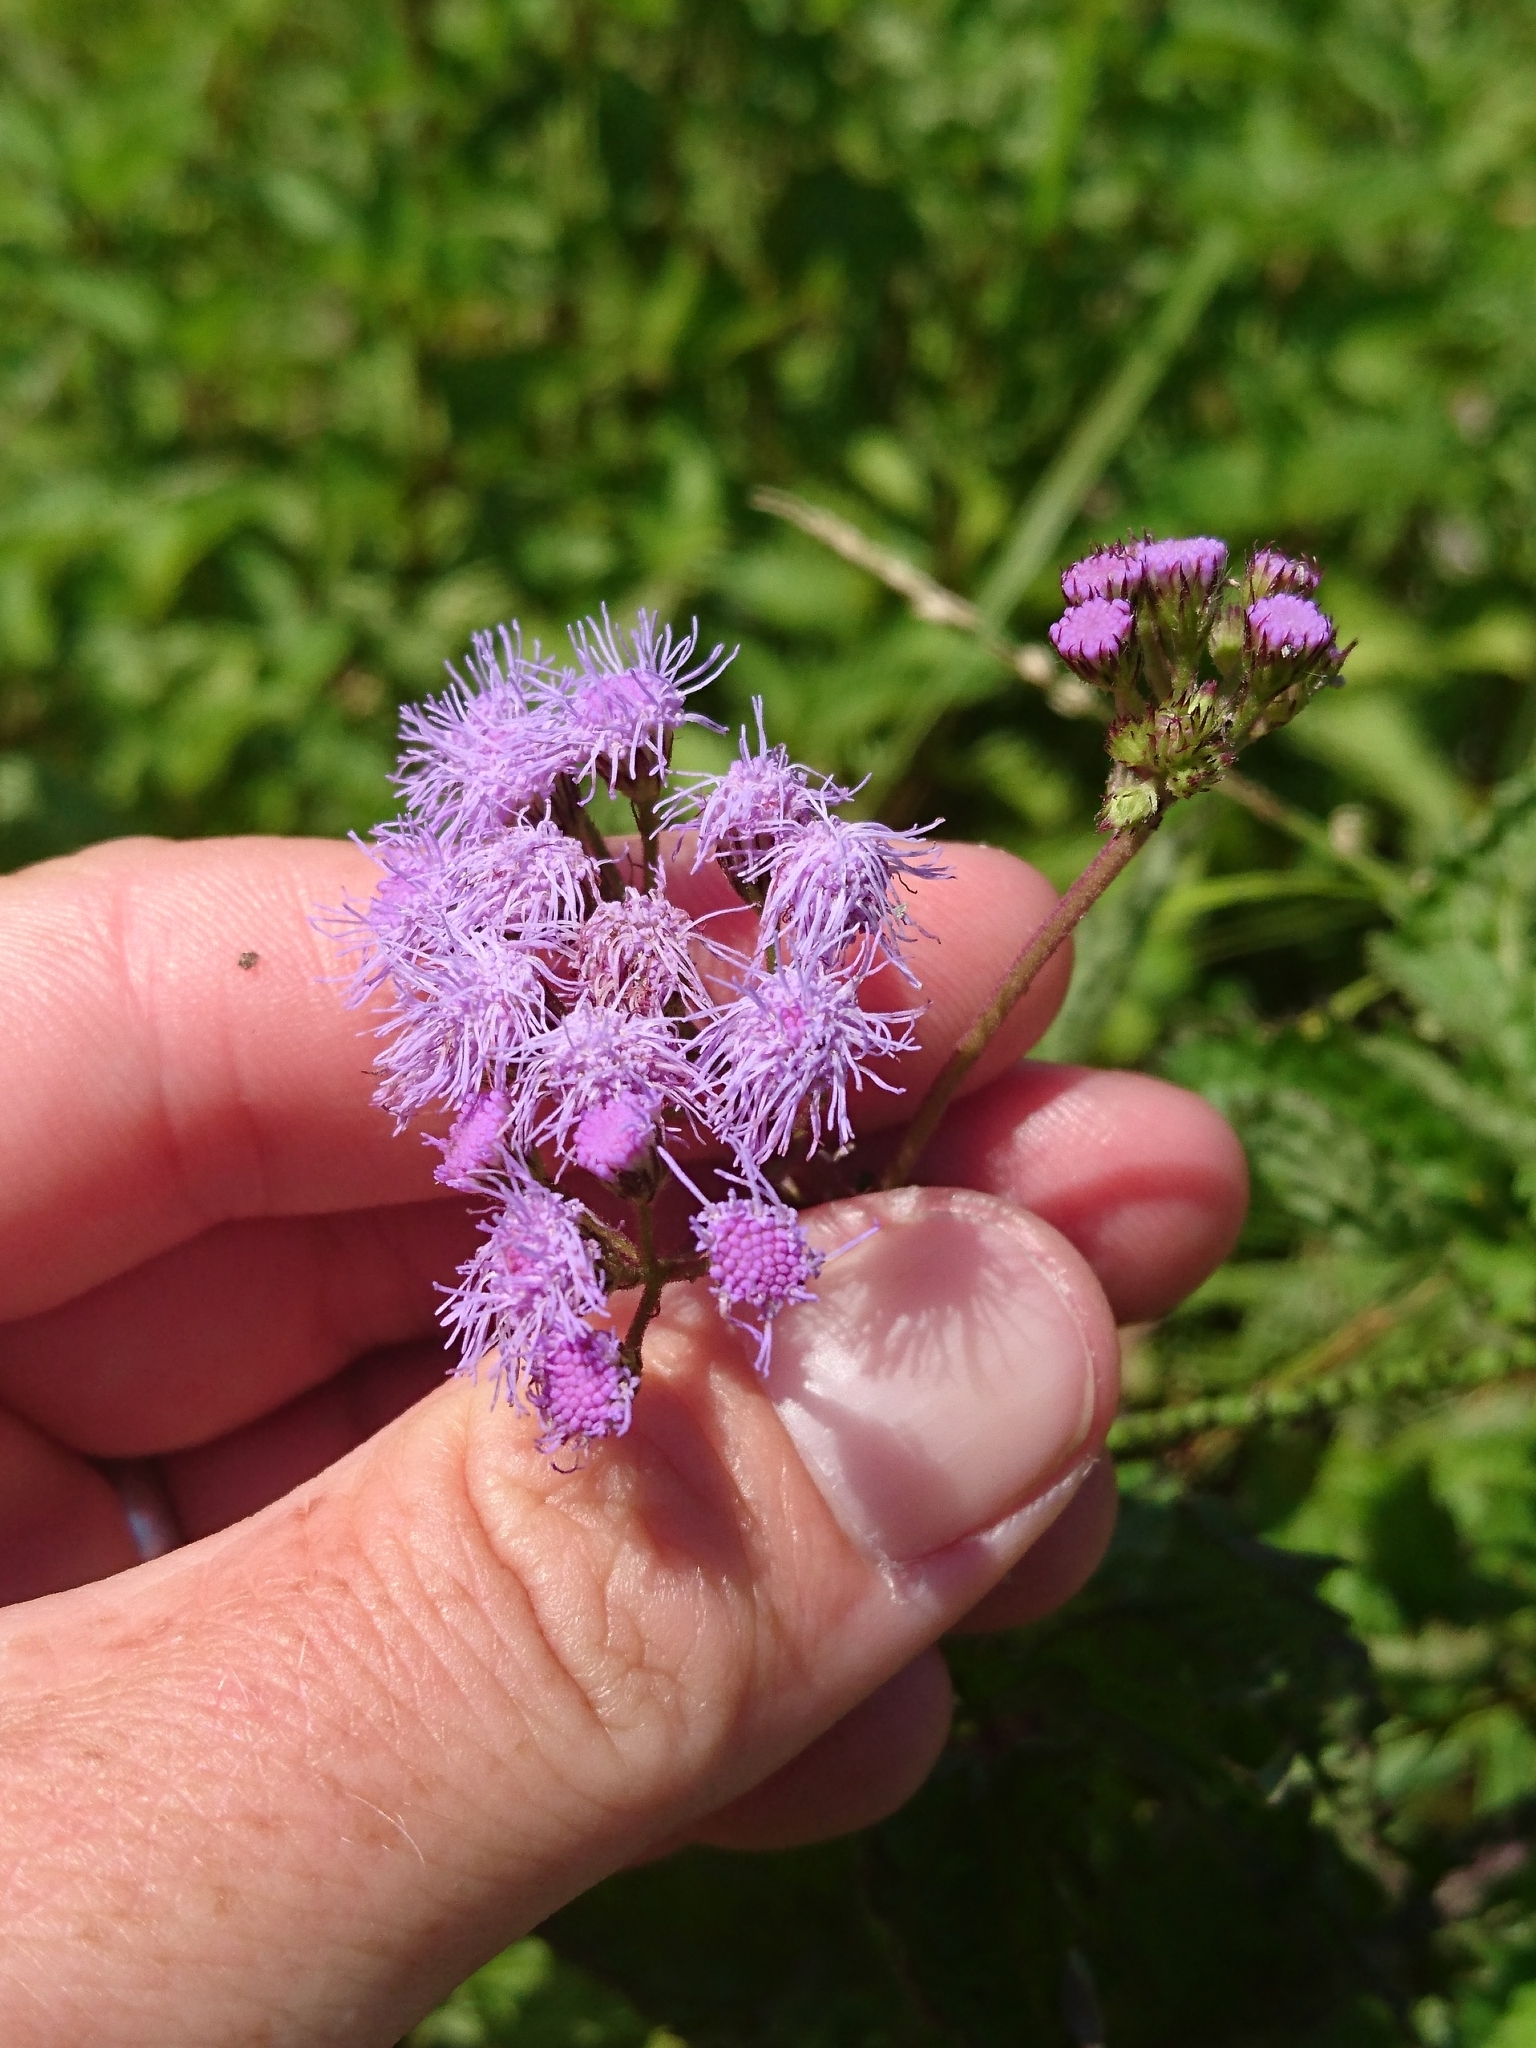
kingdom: Plantae
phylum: Tracheophyta
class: Magnoliopsida
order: Asterales
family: Asteraceae
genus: Conoclinium
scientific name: Conoclinium coelestinum
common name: Blue mistflower
